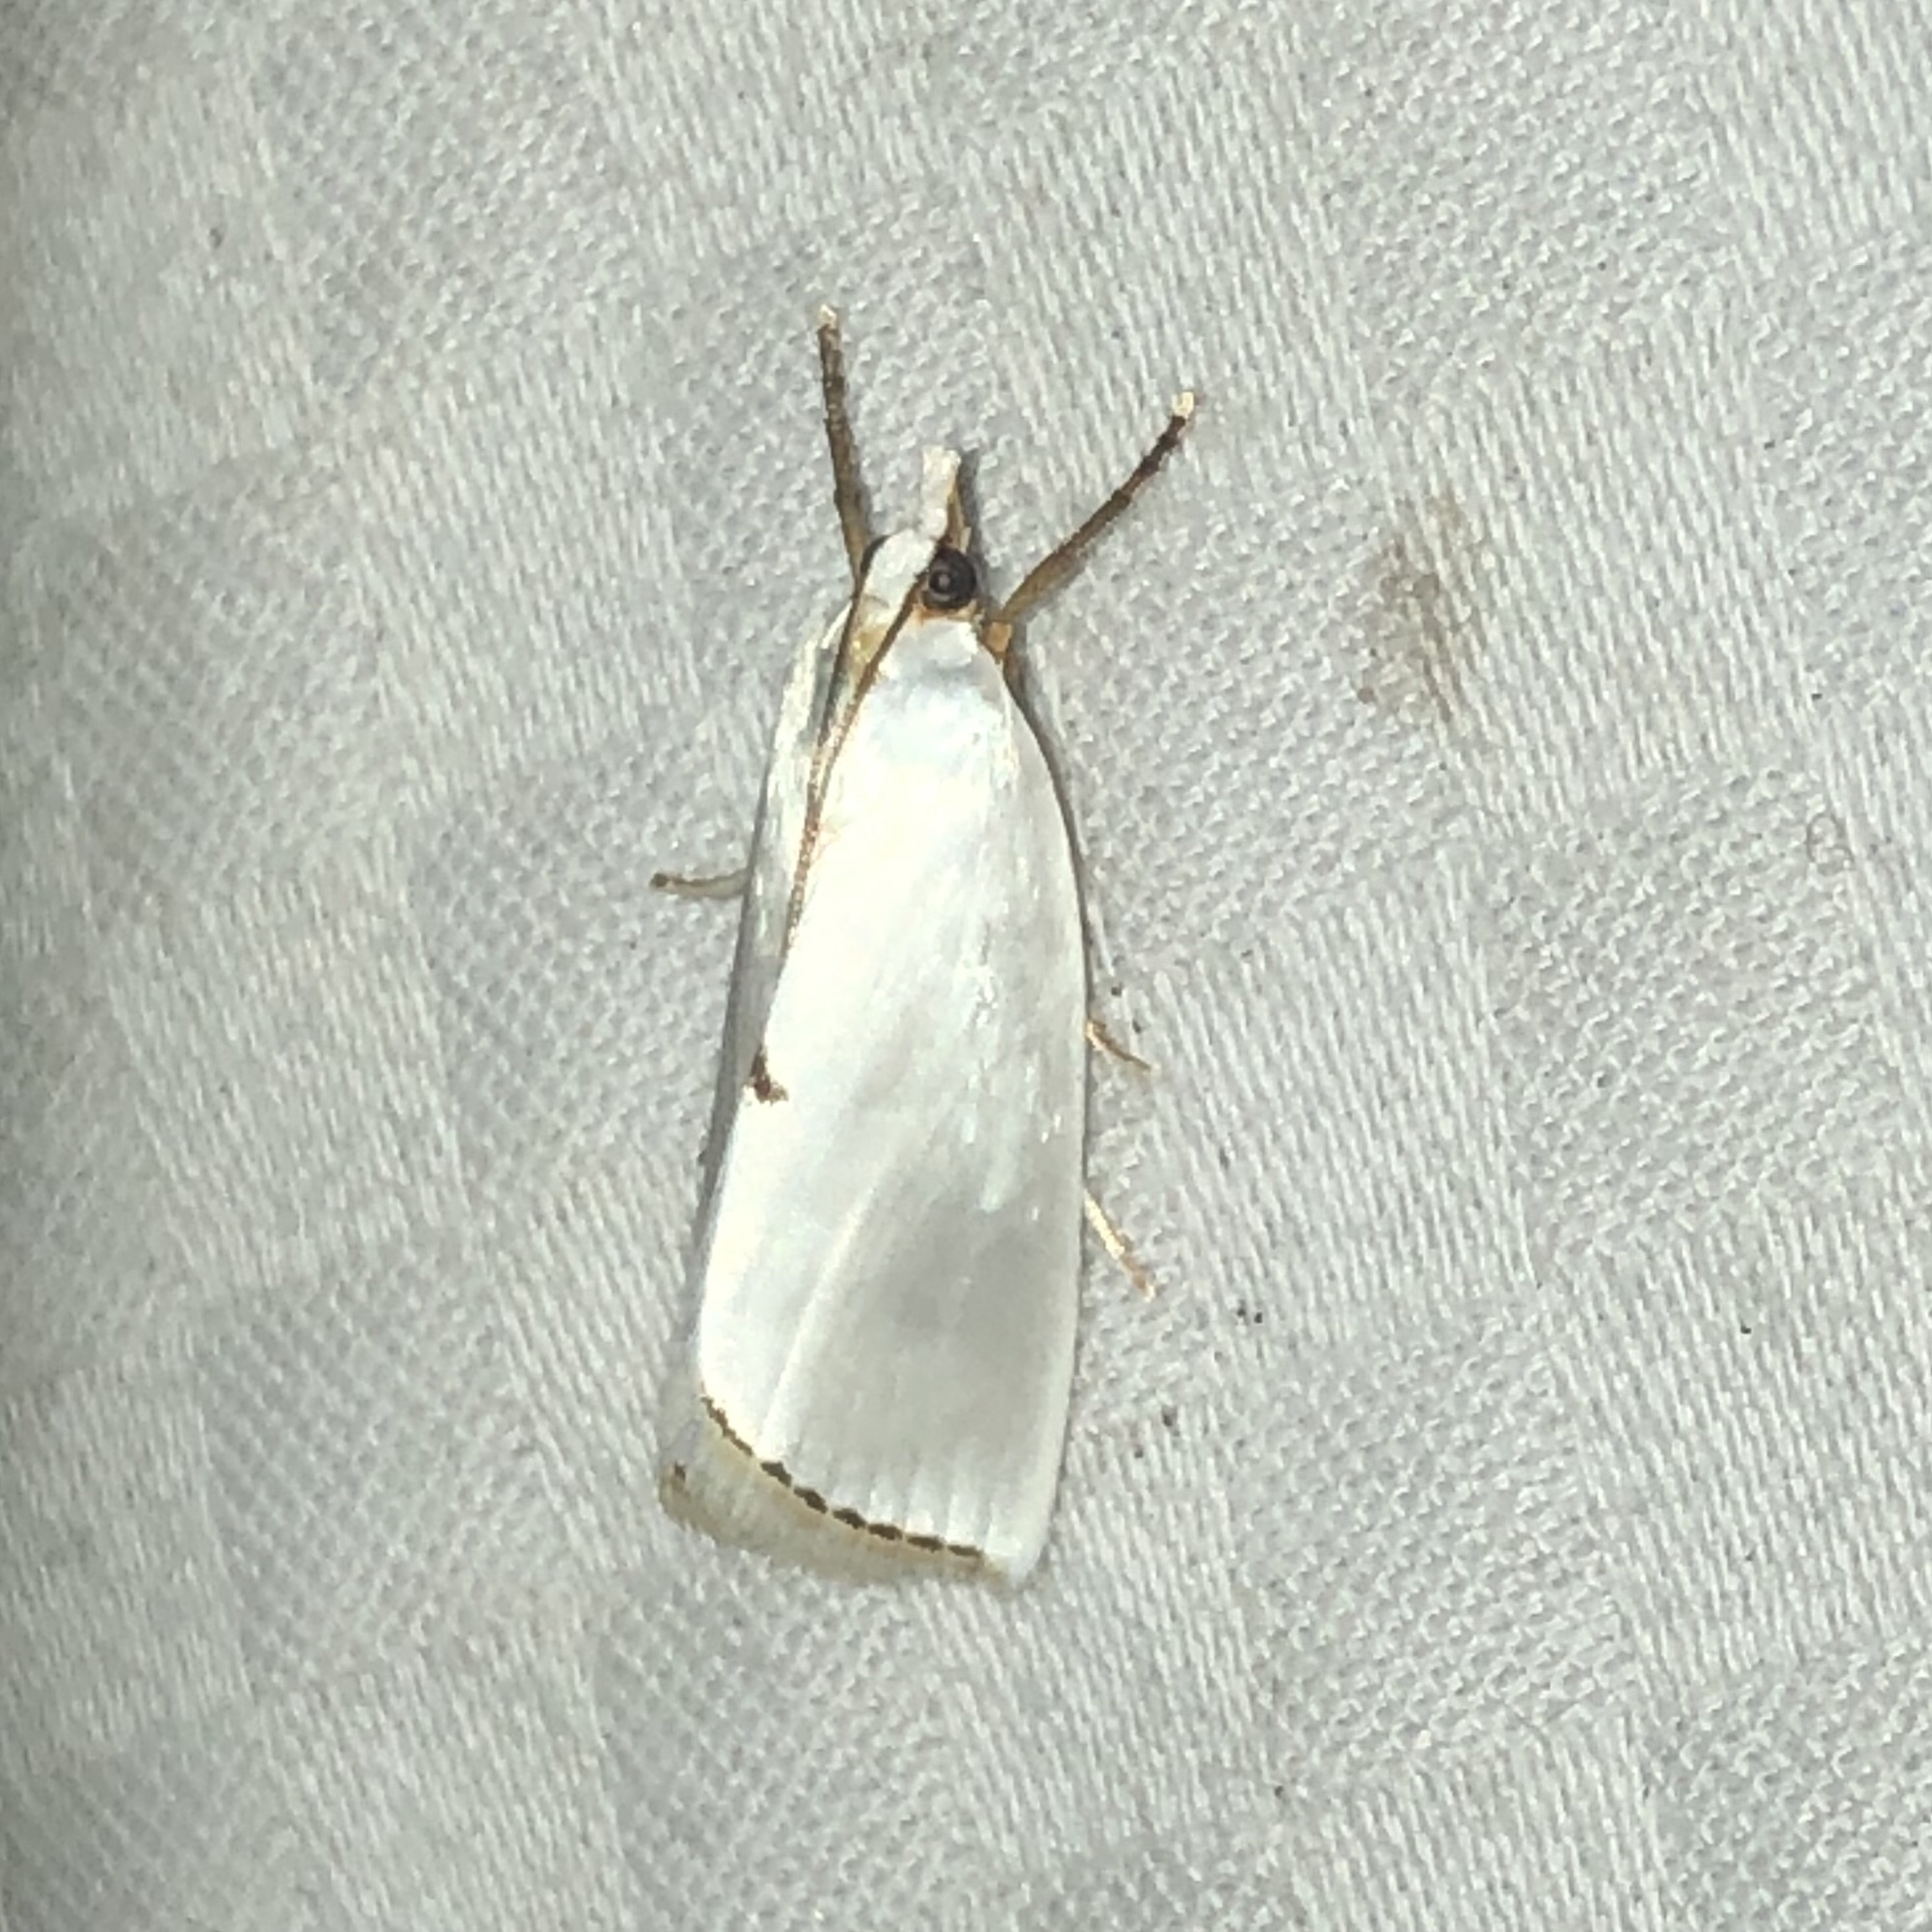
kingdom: Animalia
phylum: Arthropoda
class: Insecta
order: Lepidoptera
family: Crambidae
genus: Argyria
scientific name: Argyria nivalis
